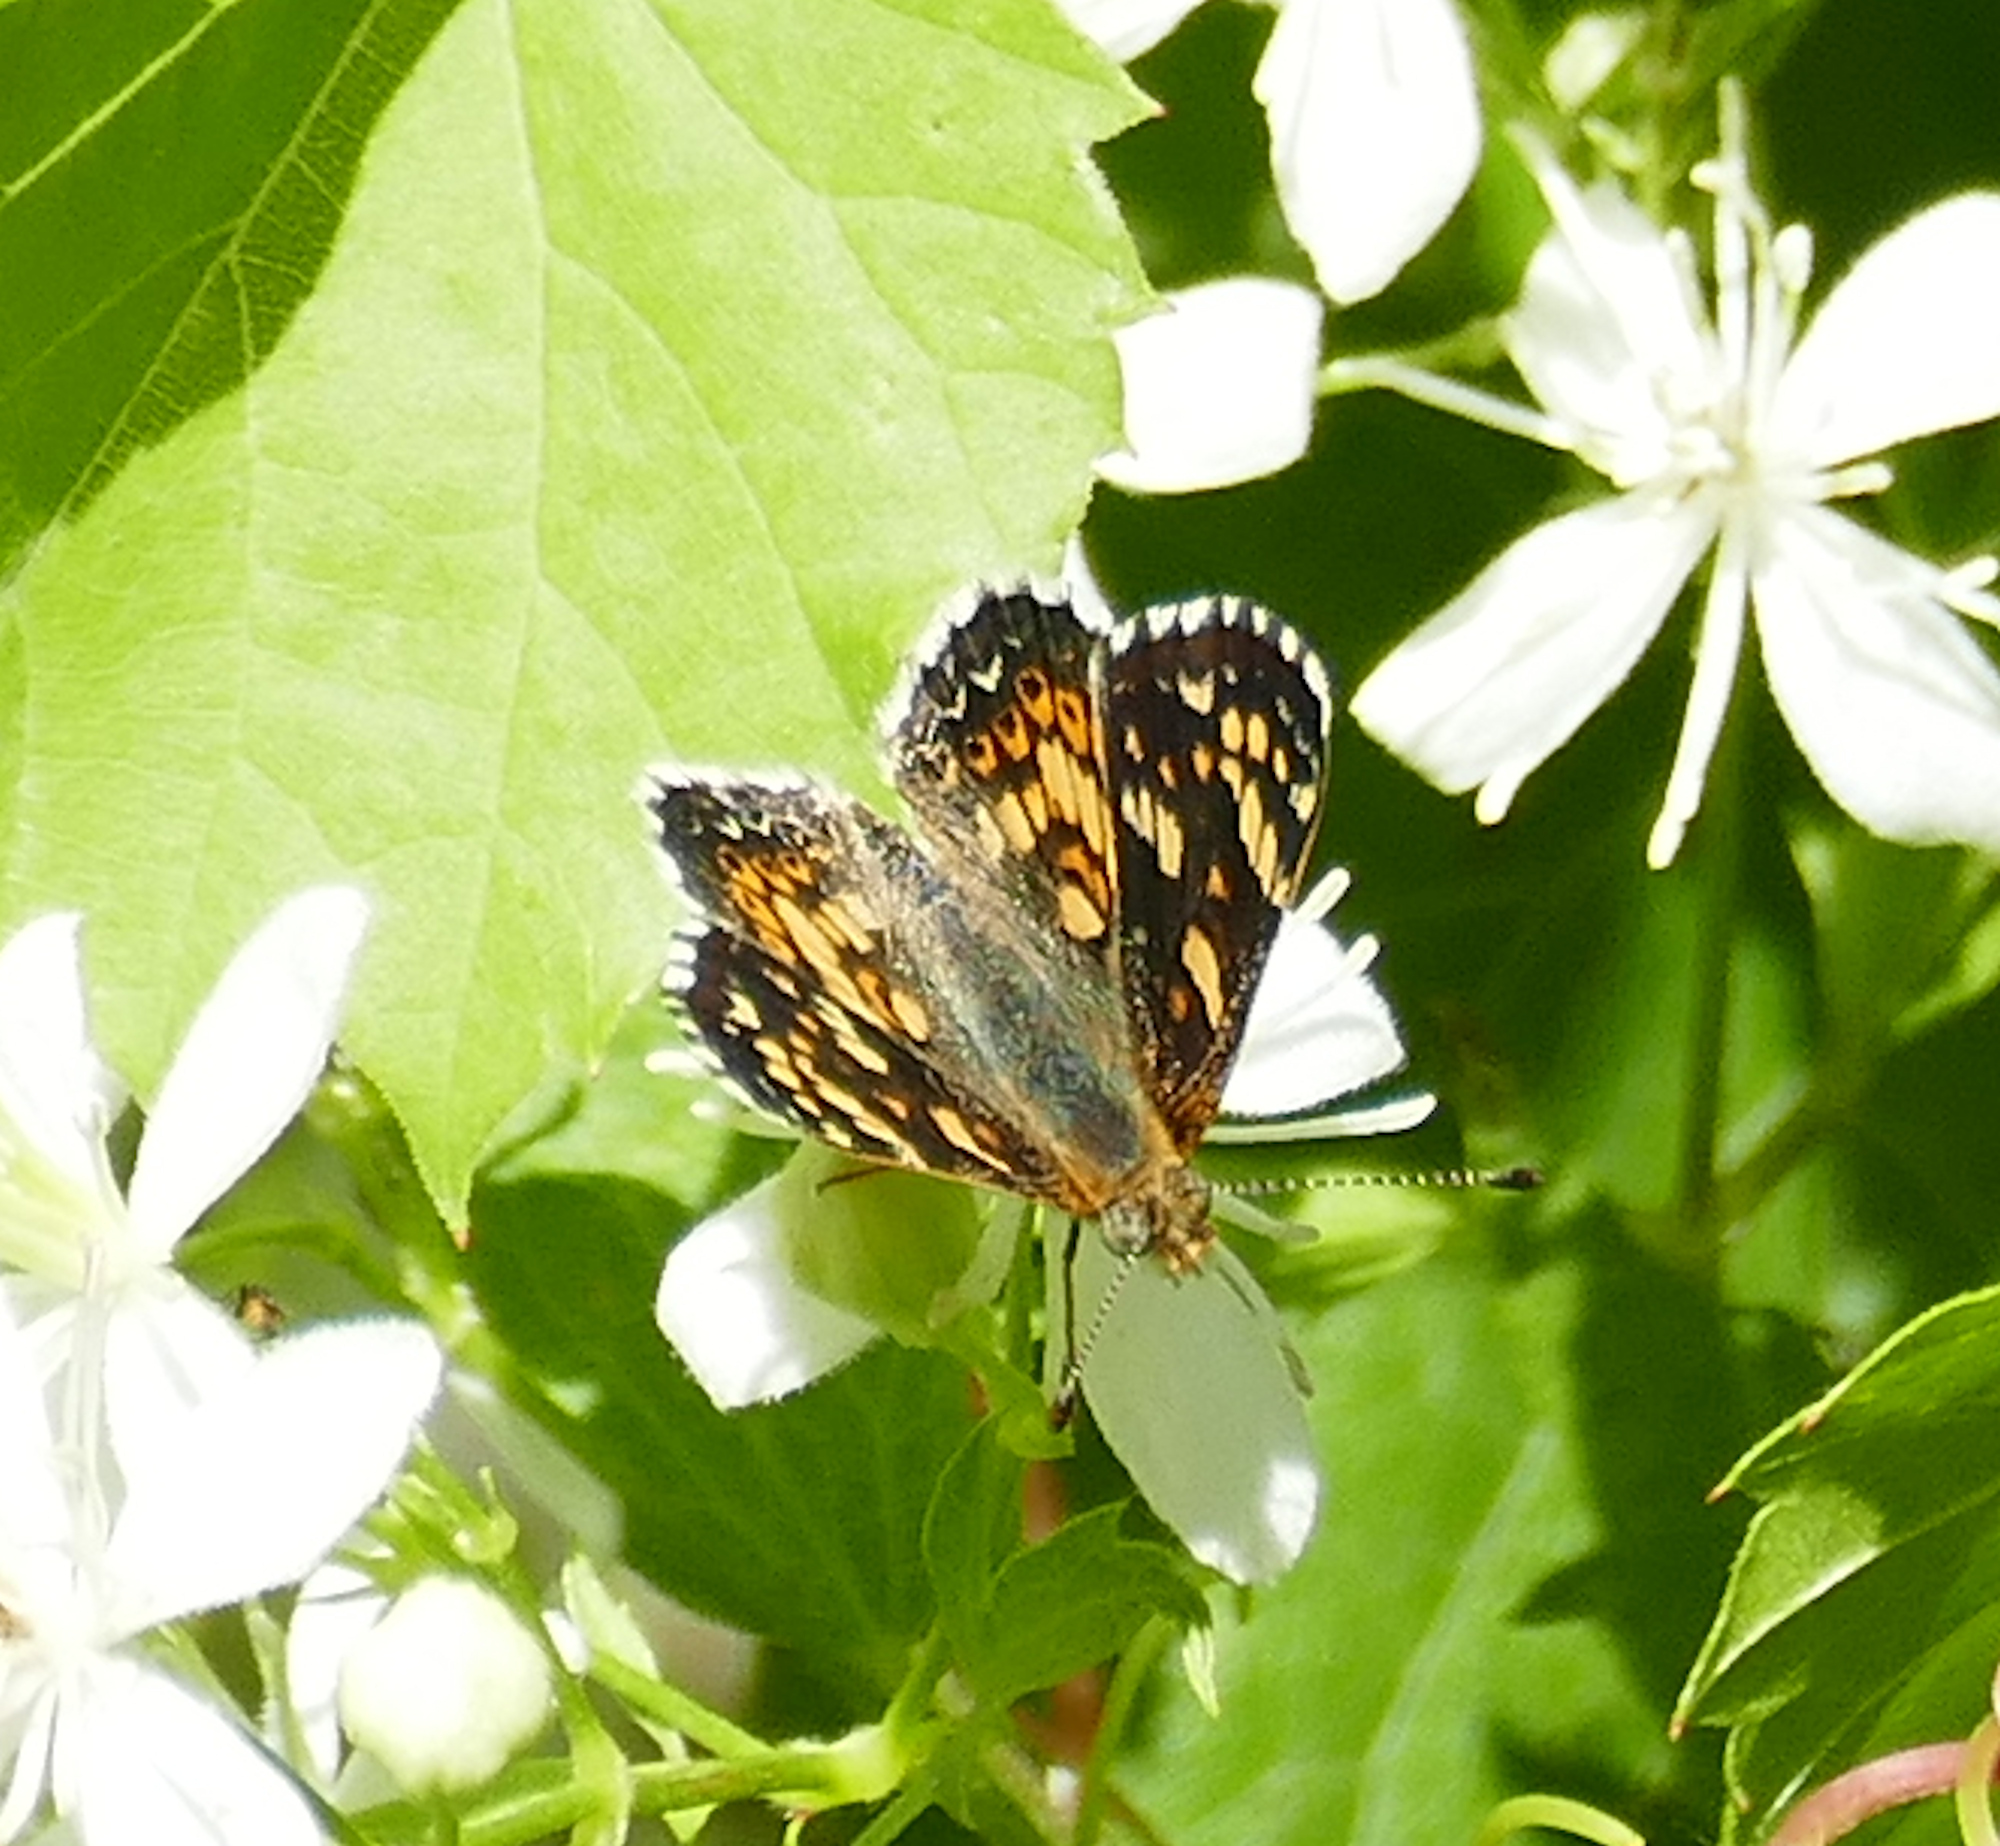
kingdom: Animalia
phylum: Arthropoda
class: Insecta
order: Lepidoptera
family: Nymphalidae
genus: Phyciodes
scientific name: Phyciodes picta
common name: Painted crescent
